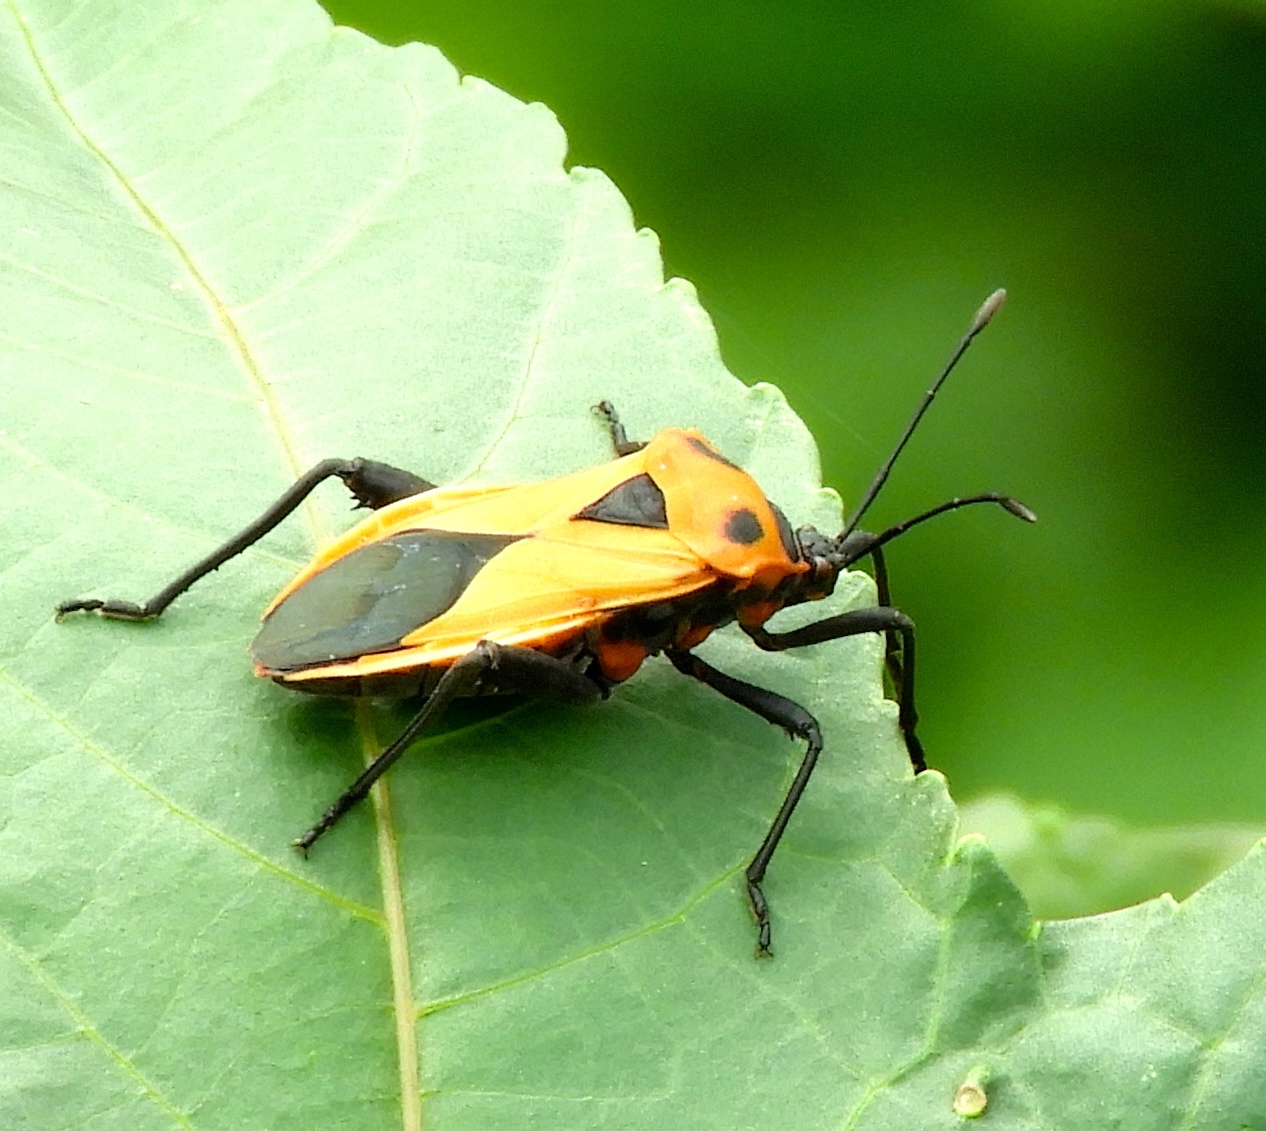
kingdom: Animalia
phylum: Arthropoda
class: Insecta
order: Hemiptera
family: Coreidae
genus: Sagotylus
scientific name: Sagotylus confluens
